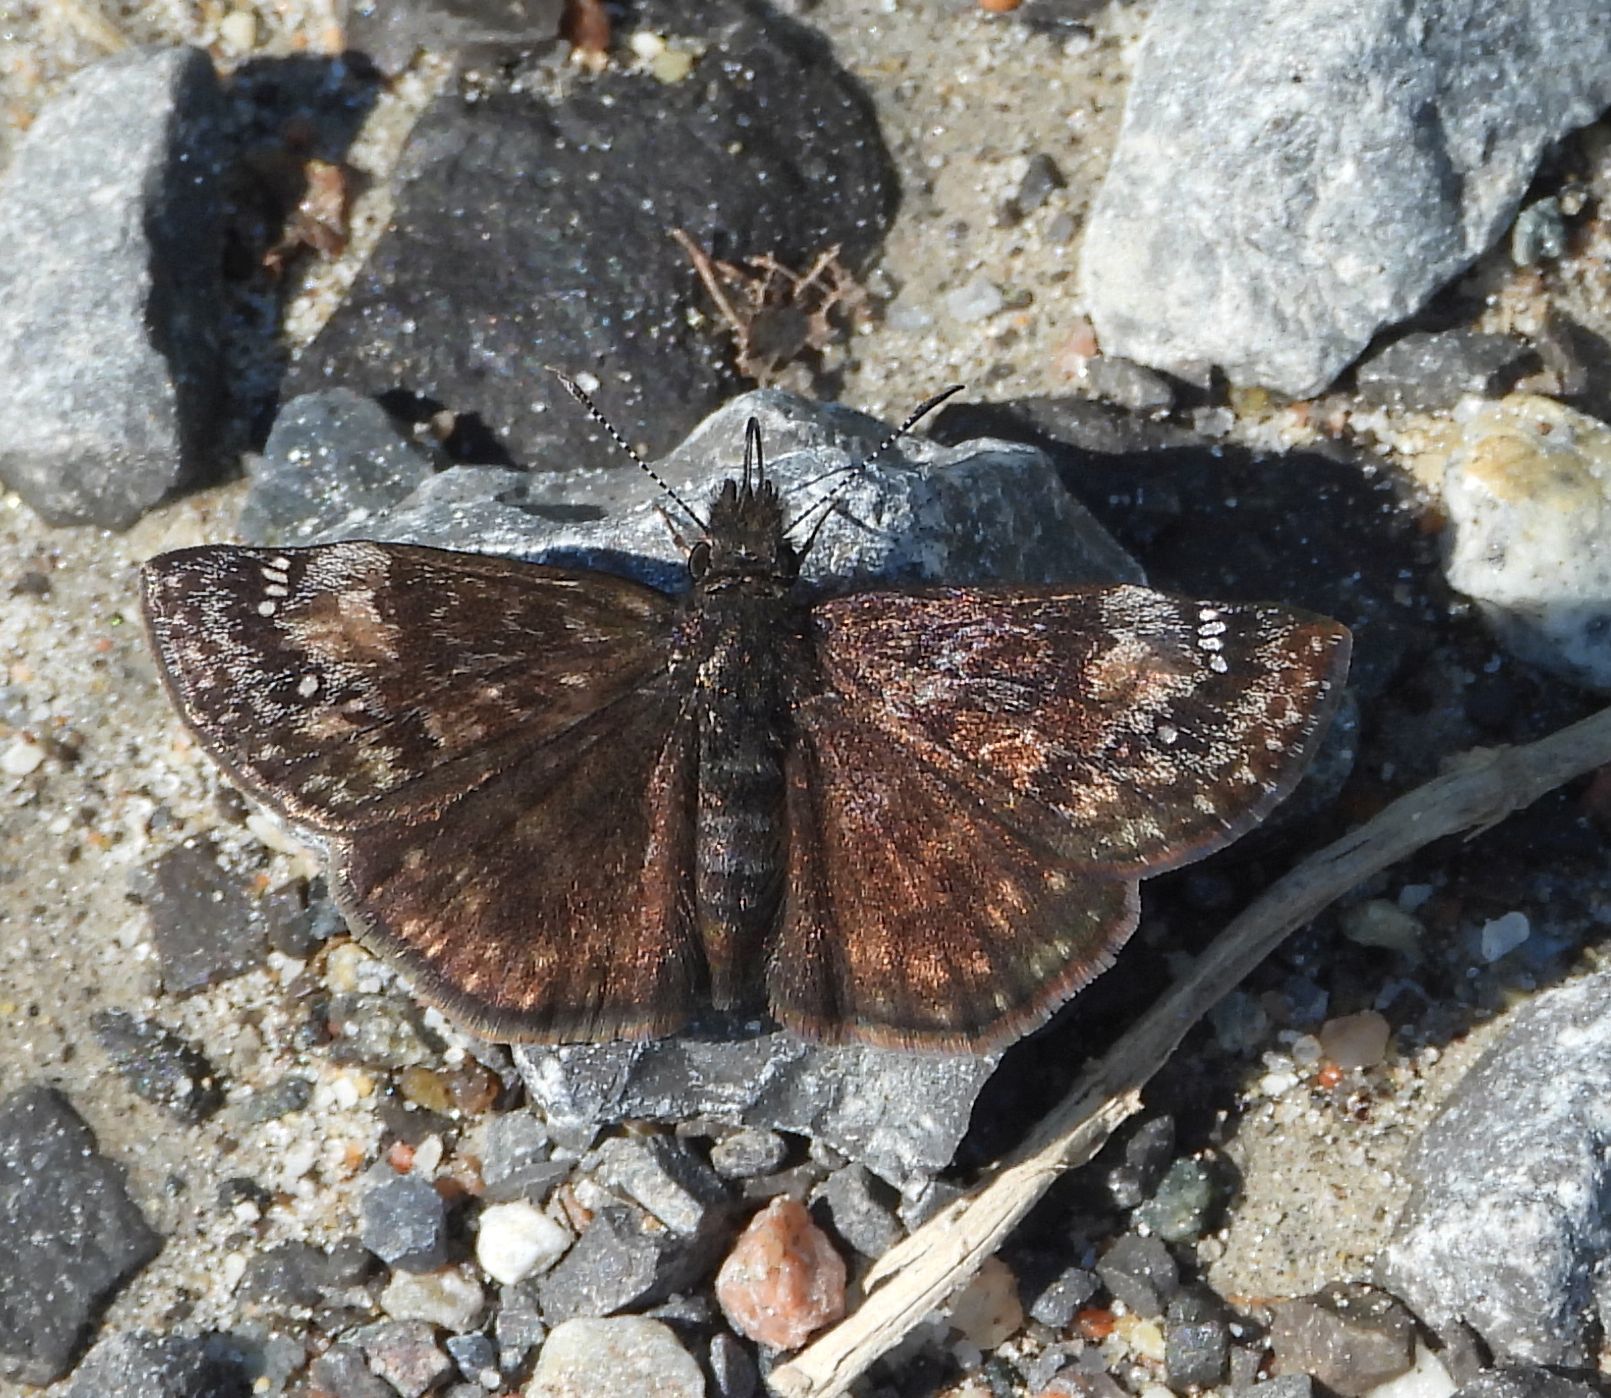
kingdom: Animalia
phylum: Arthropoda
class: Insecta
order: Lepidoptera
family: Hesperiidae
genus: Erynnis
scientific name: Erynnis lucilius
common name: Columbine duskywing
